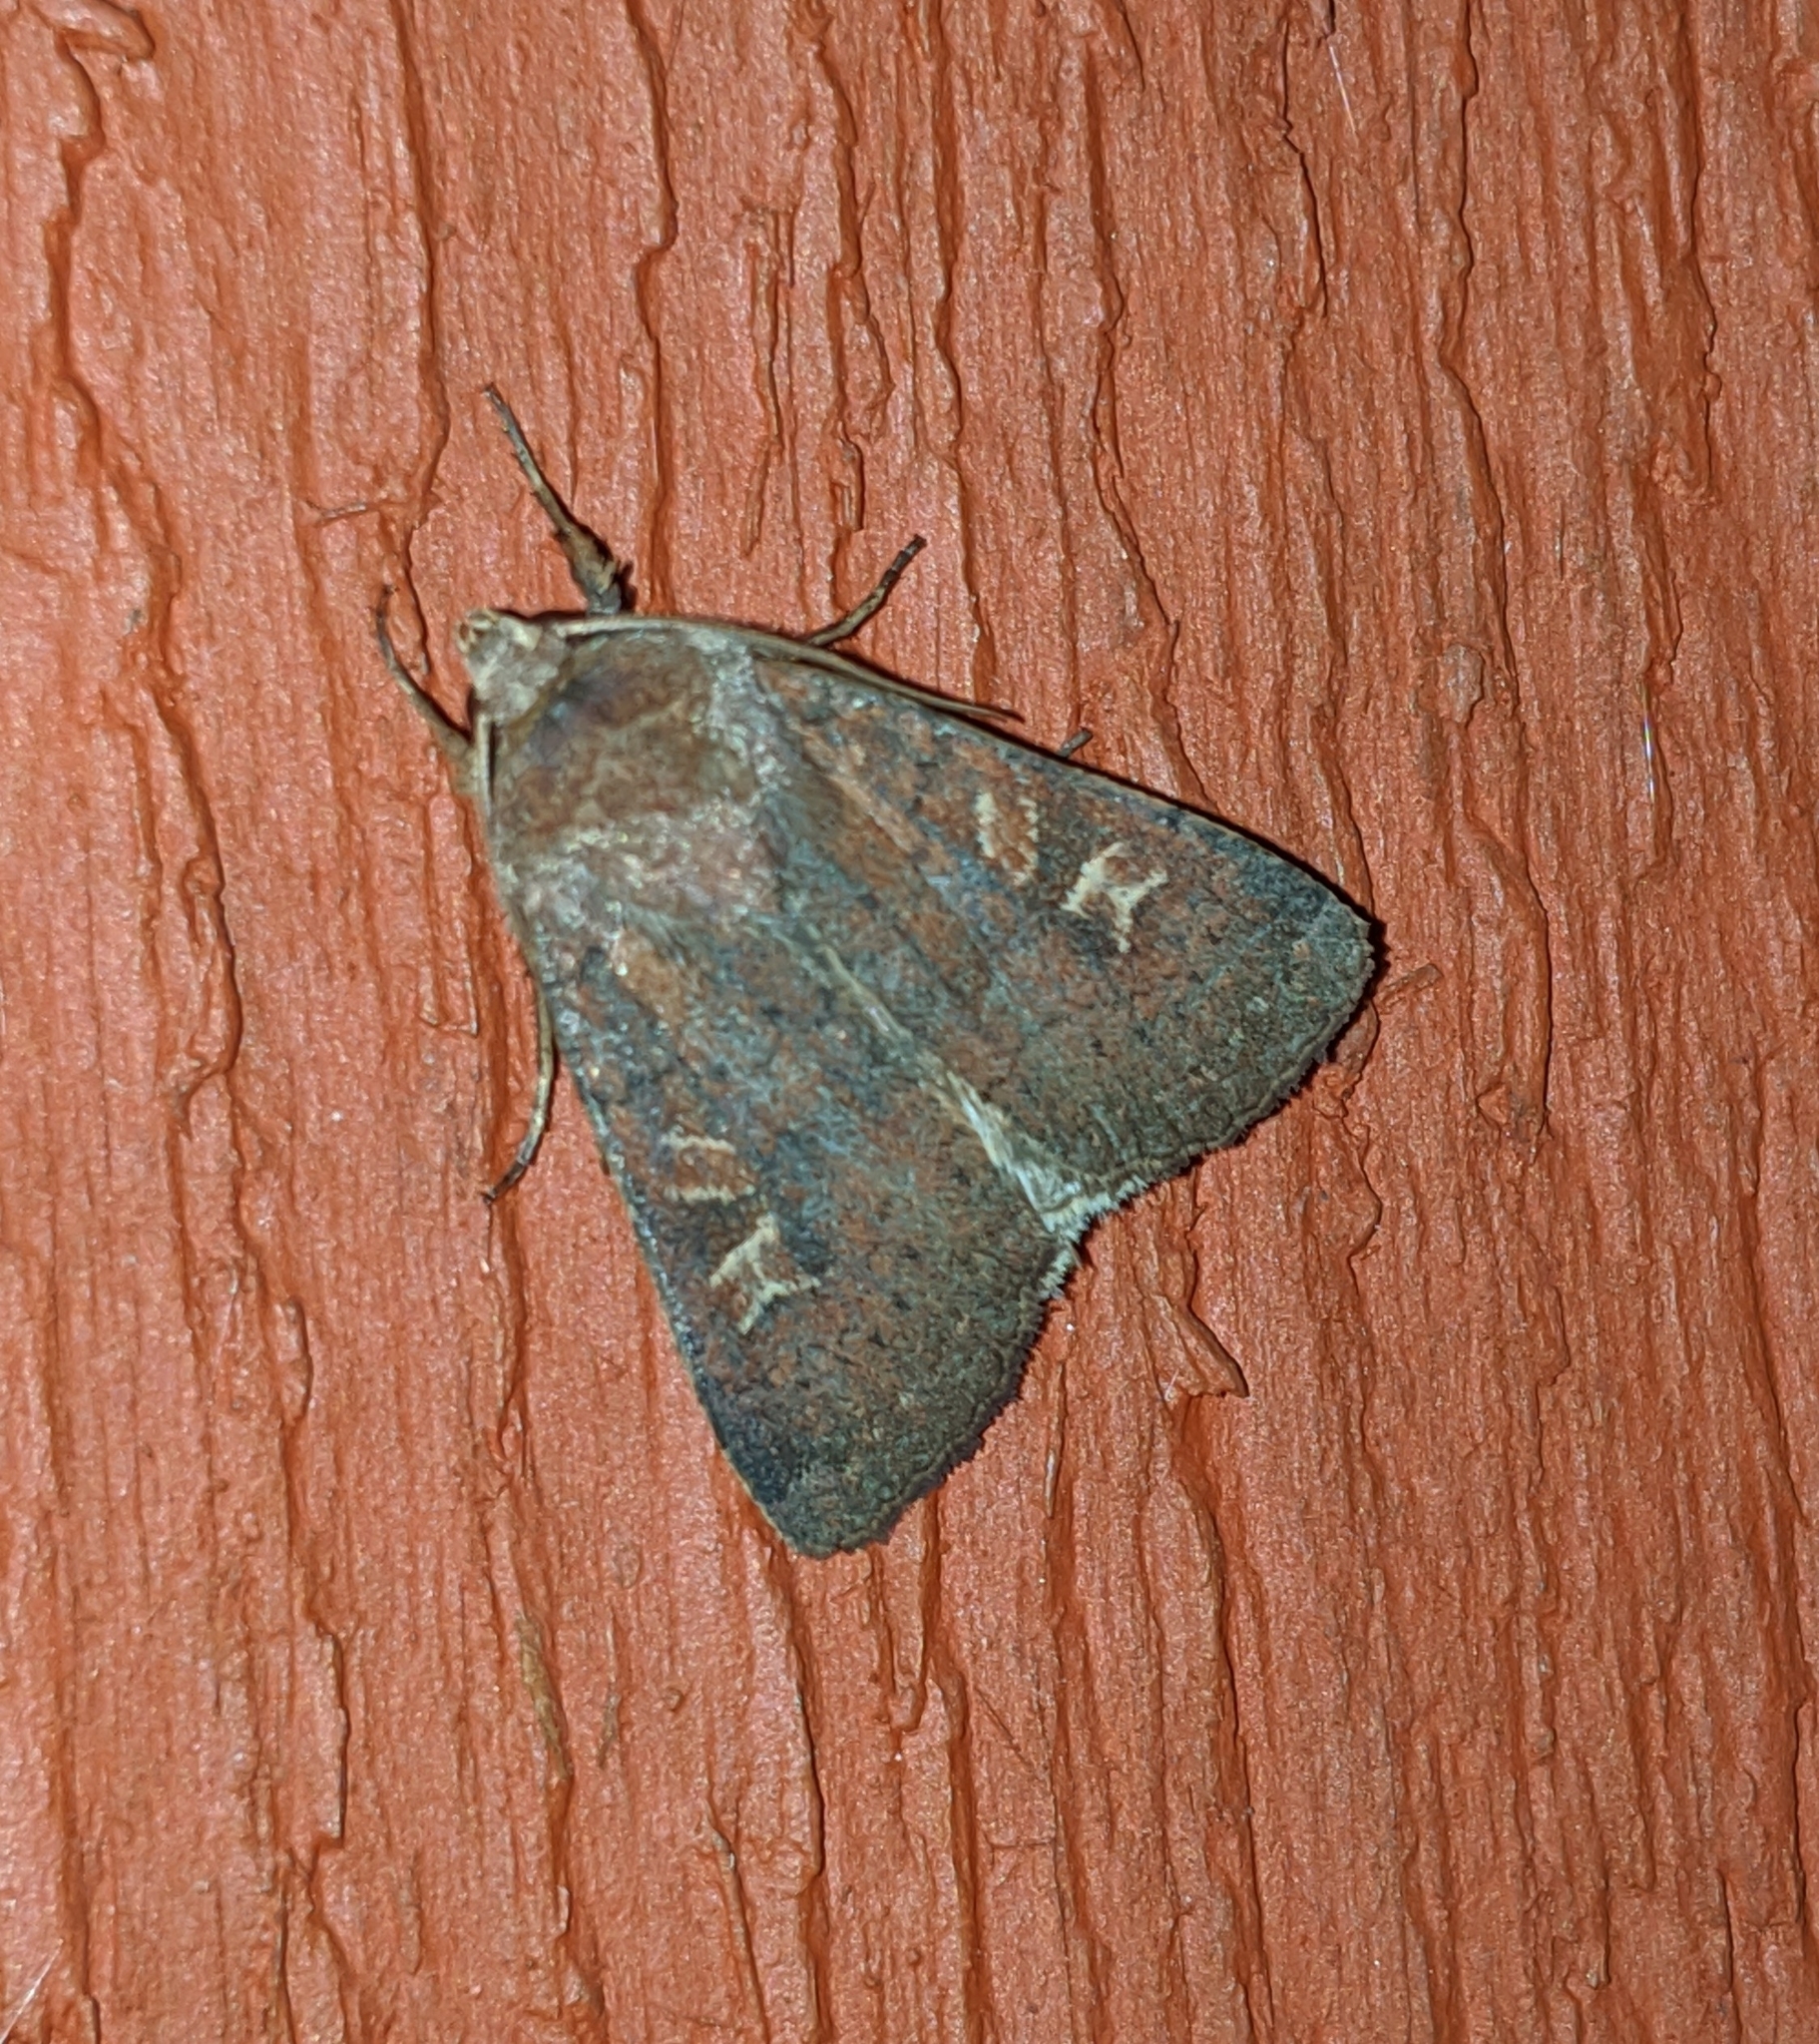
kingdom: Animalia
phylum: Arthropoda
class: Insecta
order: Lepidoptera
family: Noctuidae
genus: Xestia
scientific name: Xestia xanthographa
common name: Square-spot rustic
